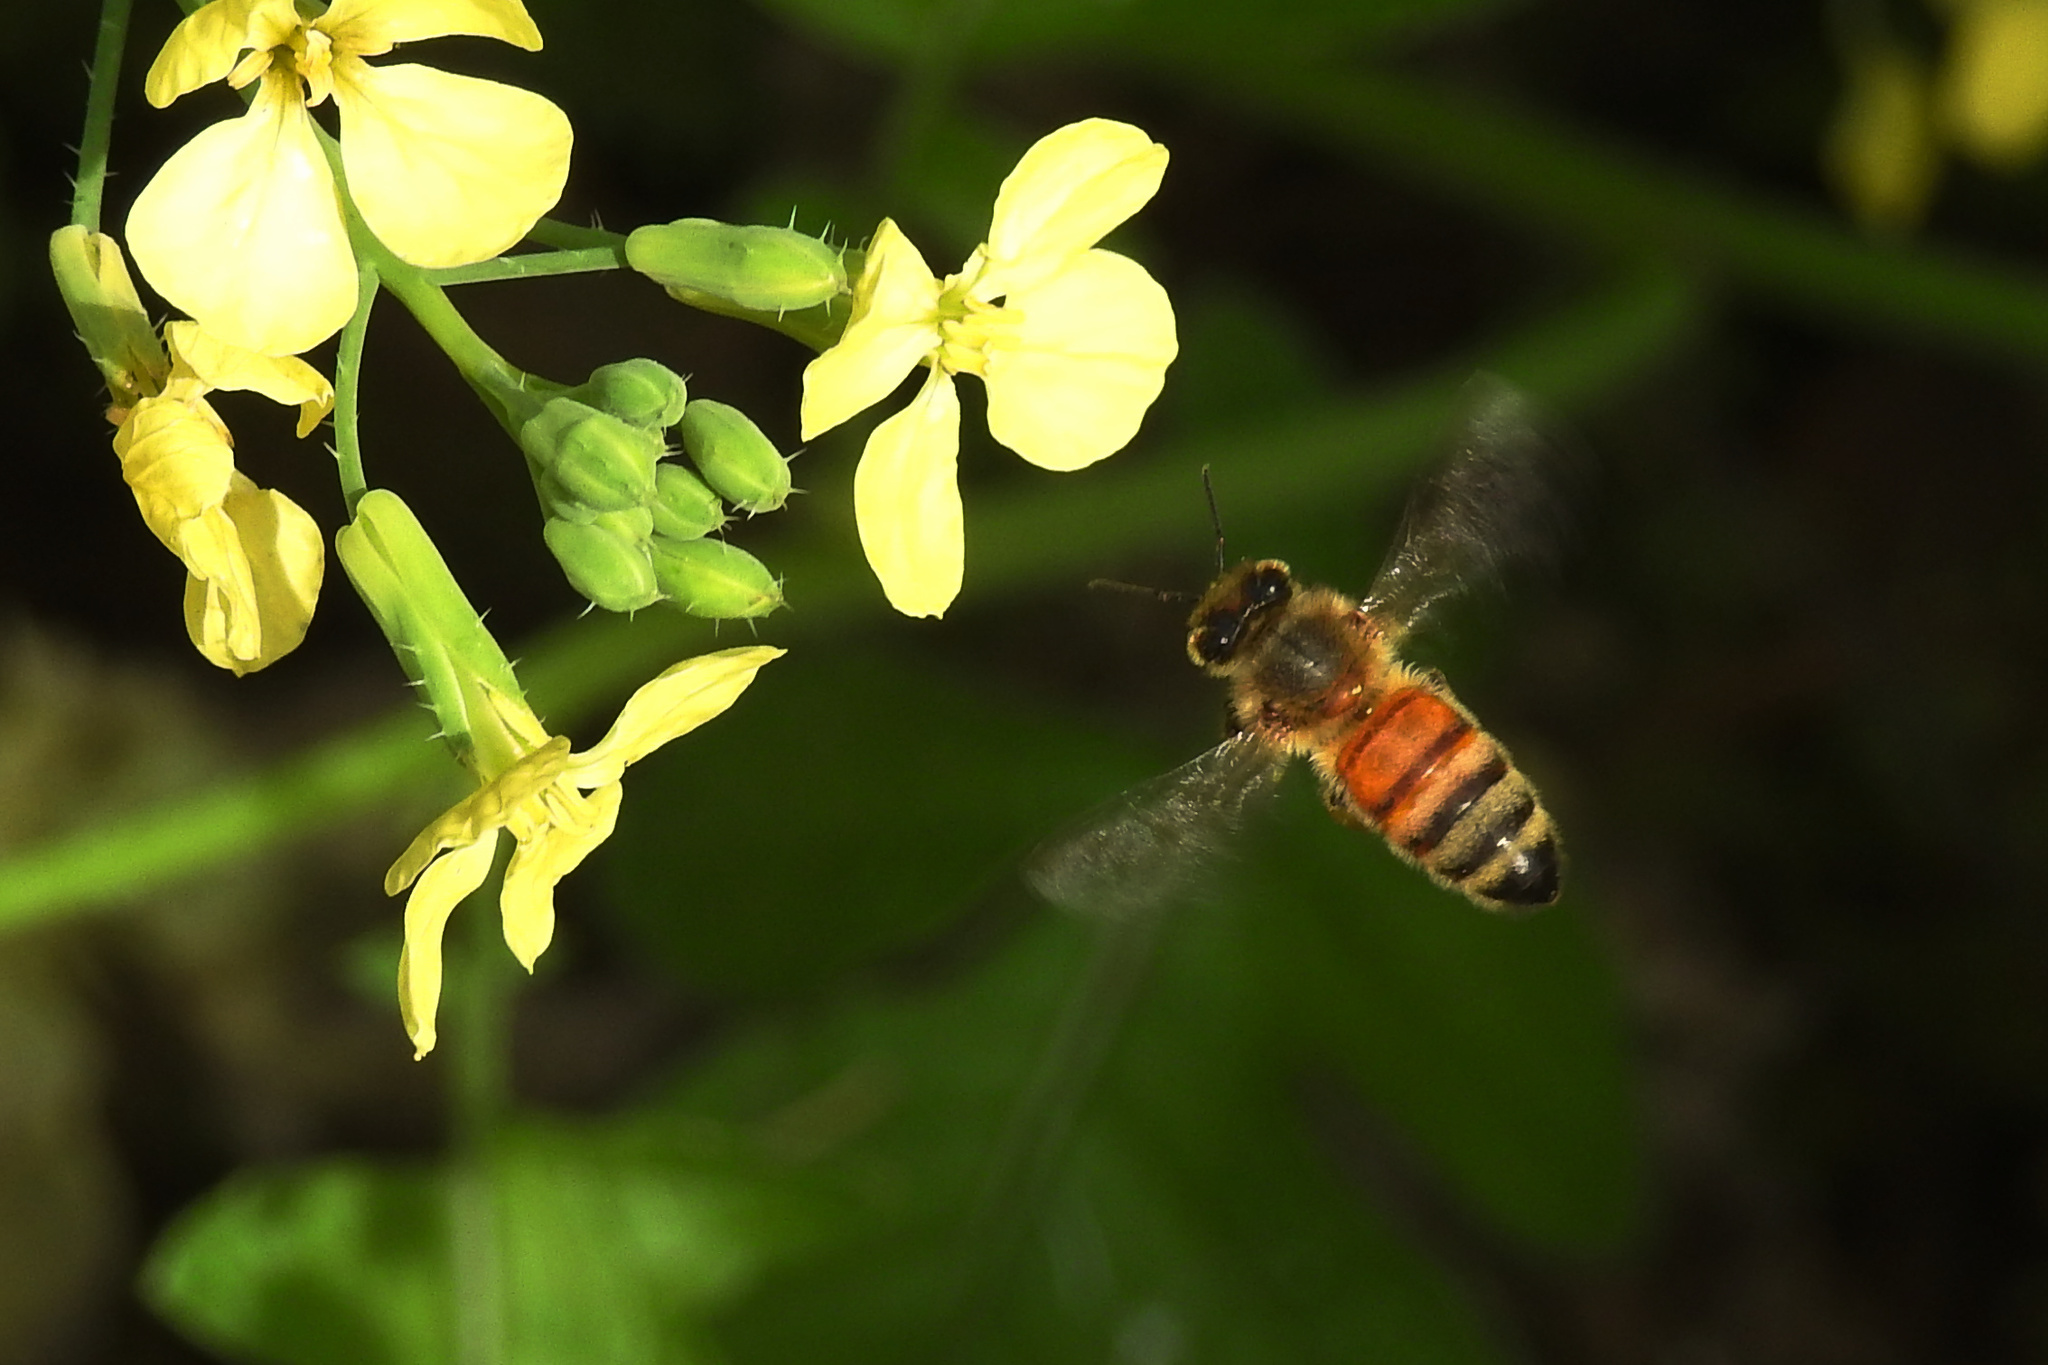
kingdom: Animalia
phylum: Arthropoda
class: Insecta
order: Hymenoptera
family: Apidae
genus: Apis
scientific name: Apis mellifera
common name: Honey bee
